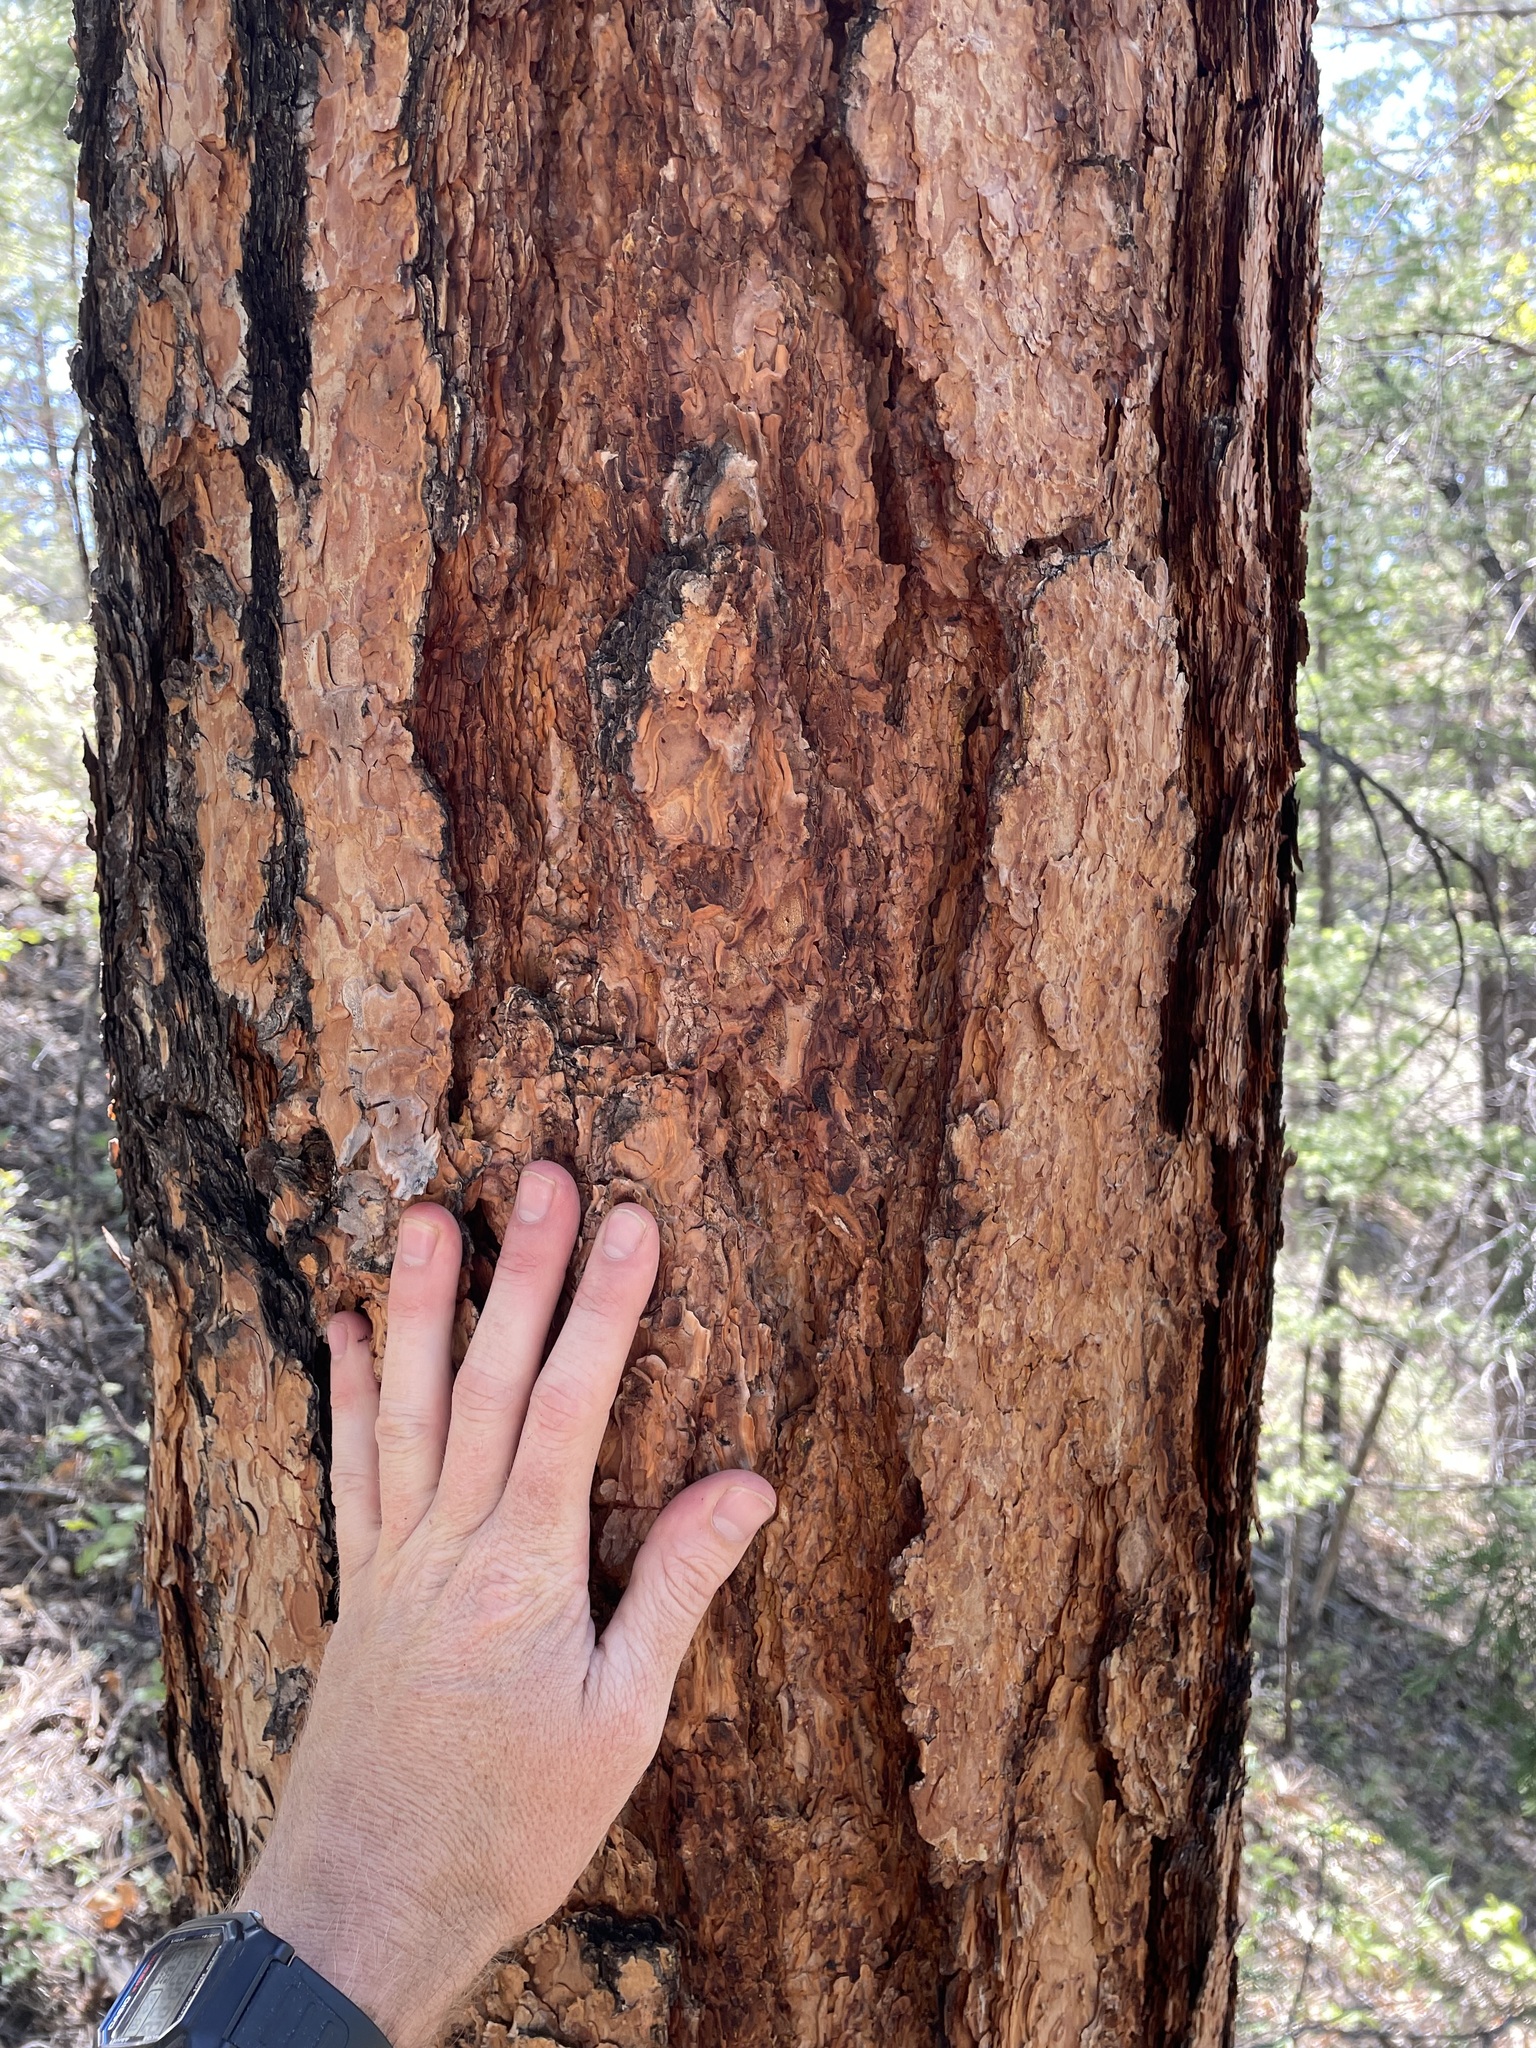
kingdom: Plantae
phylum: Tracheophyta
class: Pinopsida
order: Pinales
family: Pinaceae
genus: Pinus
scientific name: Pinus ponderosa
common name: Western yellow-pine
